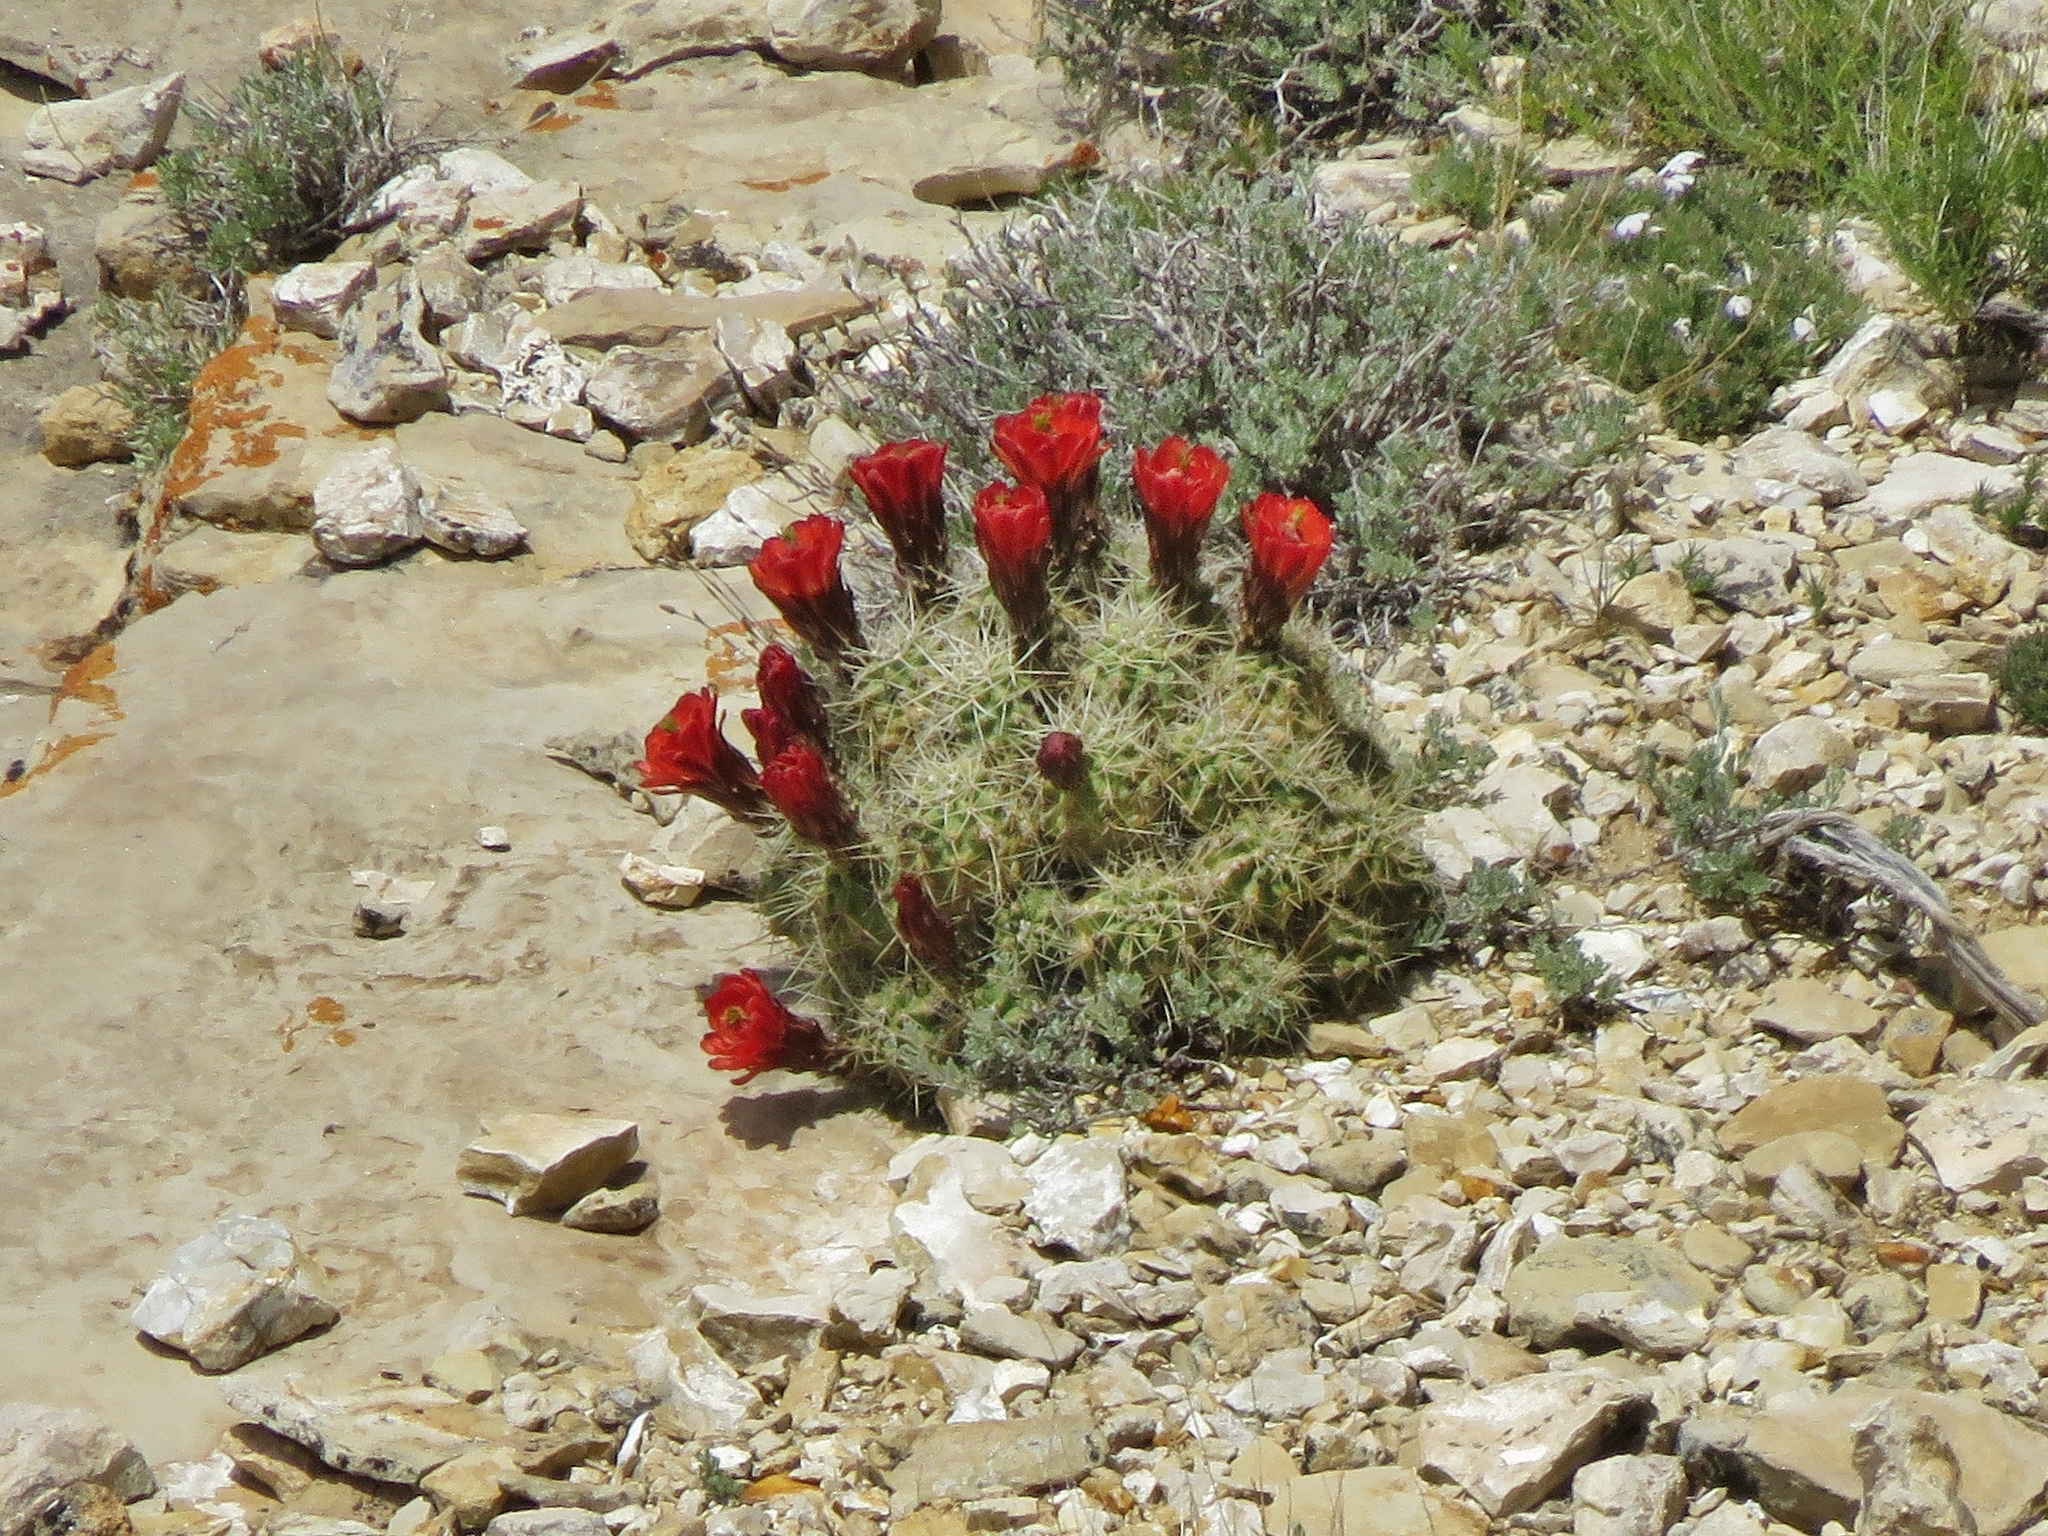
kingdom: Plantae
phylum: Tracheophyta
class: Magnoliopsida
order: Caryophyllales
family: Cactaceae
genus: Echinocereus
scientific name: Echinocereus triglochidiatus
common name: Claretcup hedgehog
